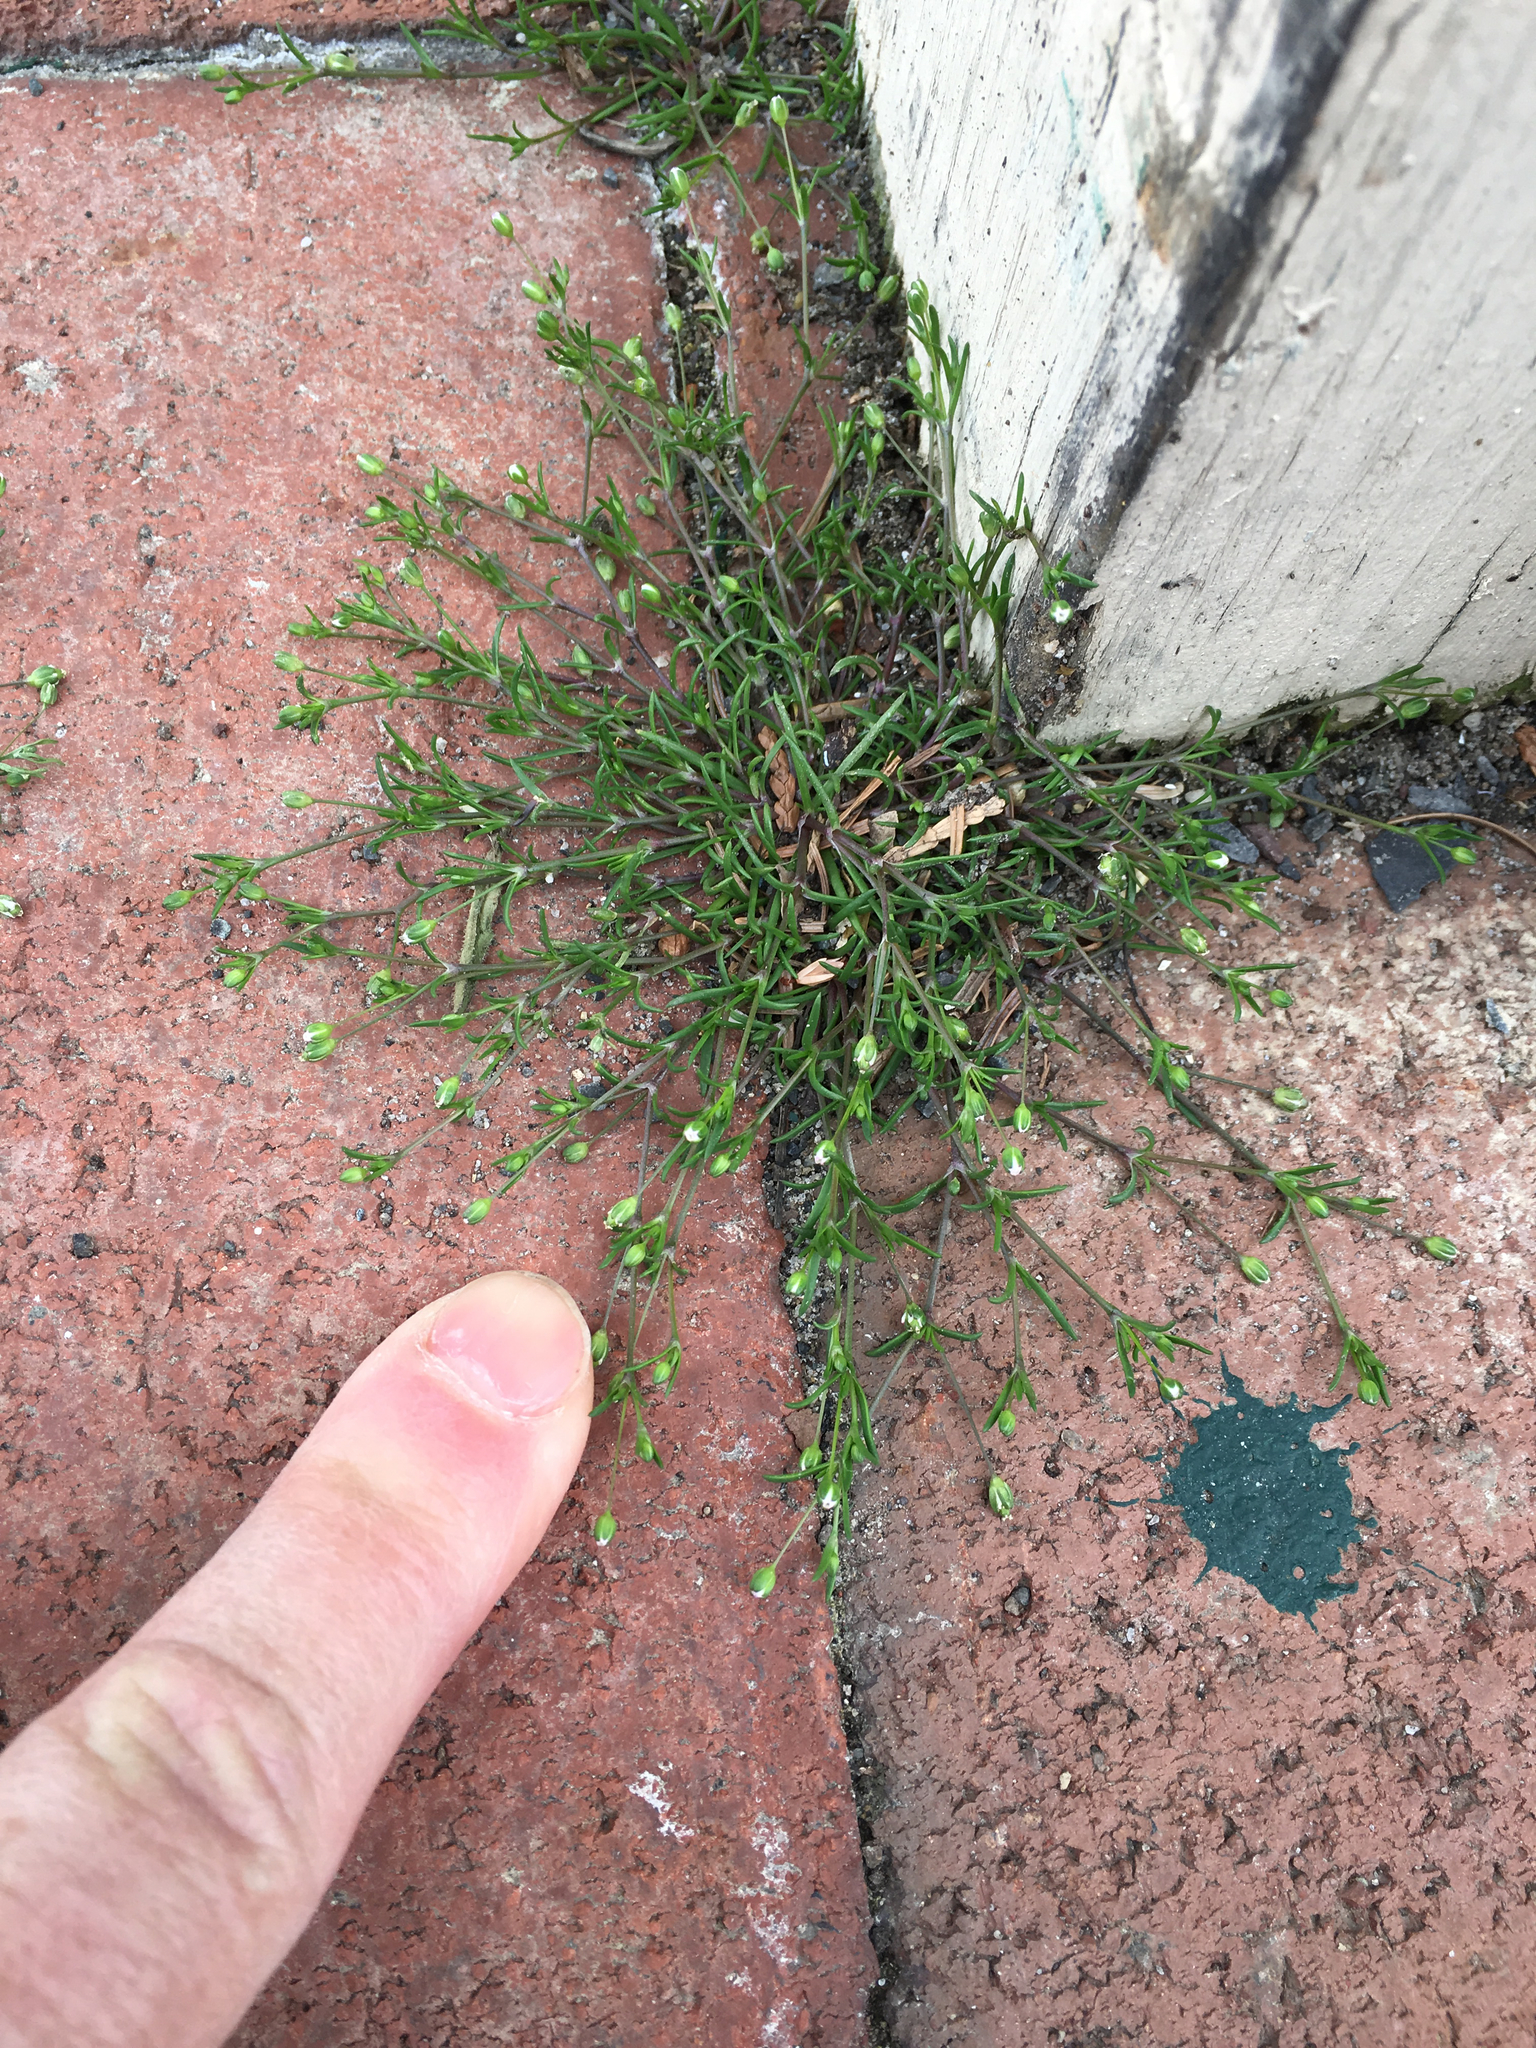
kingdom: Plantae
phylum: Tracheophyta
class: Magnoliopsida
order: Caryophyllales
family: Caryophyllaceae
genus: Sagina
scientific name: Sagina procumbens
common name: Procumbent pearlwort
